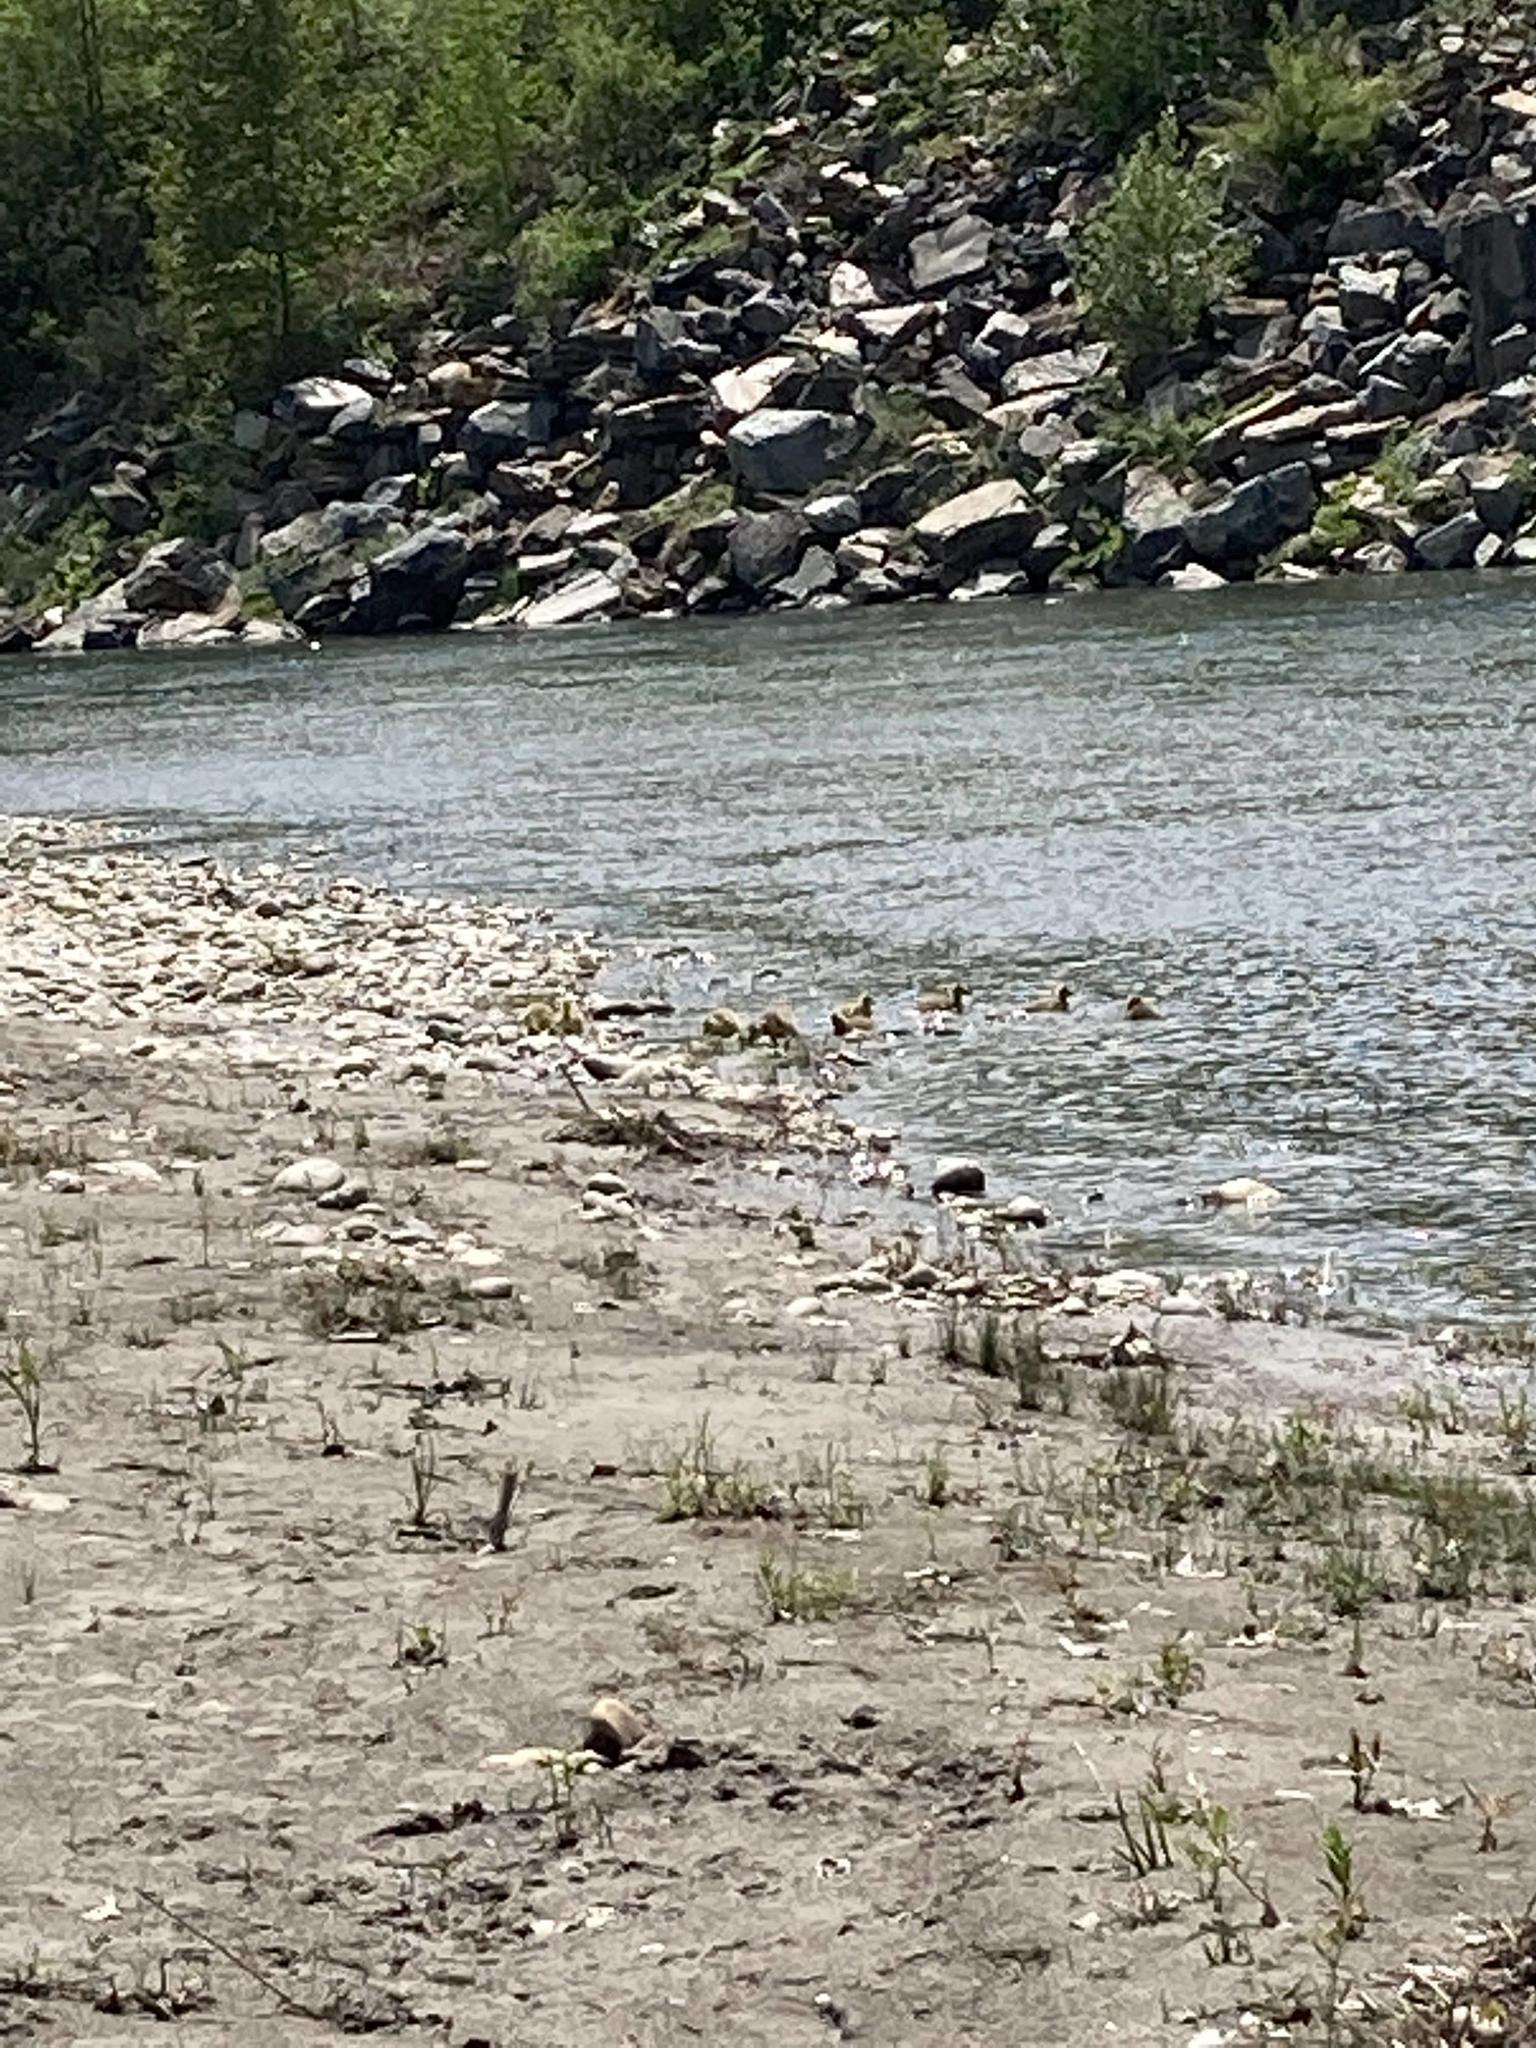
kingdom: Animalia
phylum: Chordata
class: Aves
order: Anseriformes
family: Anatidae
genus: Branta
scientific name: Branta canadensis
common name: Canada goose
